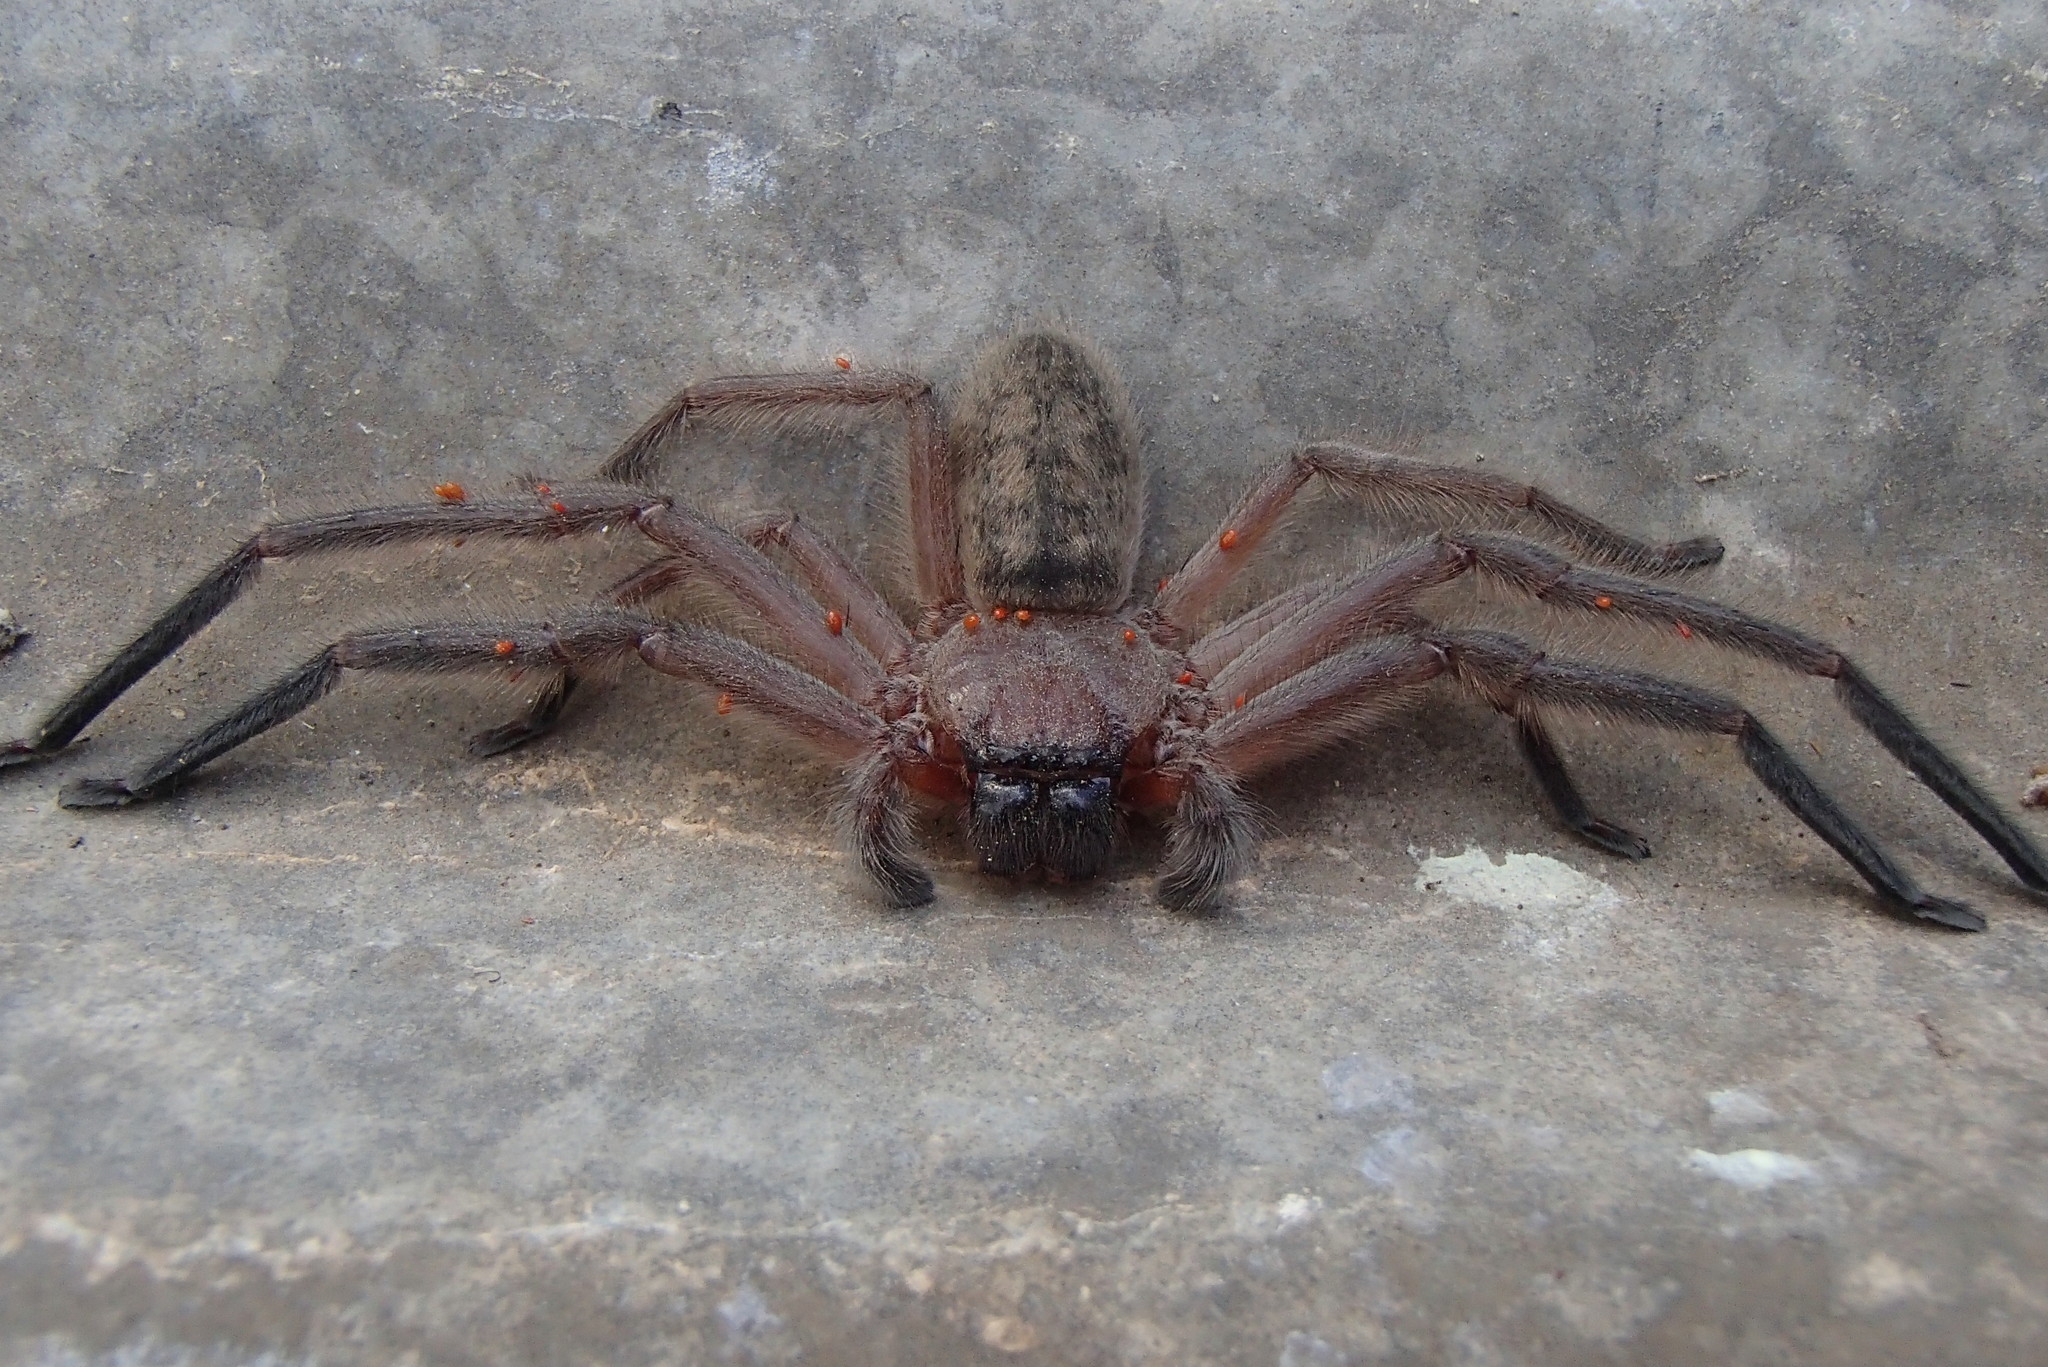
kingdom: Animalia
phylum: Arthropoda
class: Arachnida
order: Araneae
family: Sparassidae
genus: Delena
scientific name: Delena cancerides
